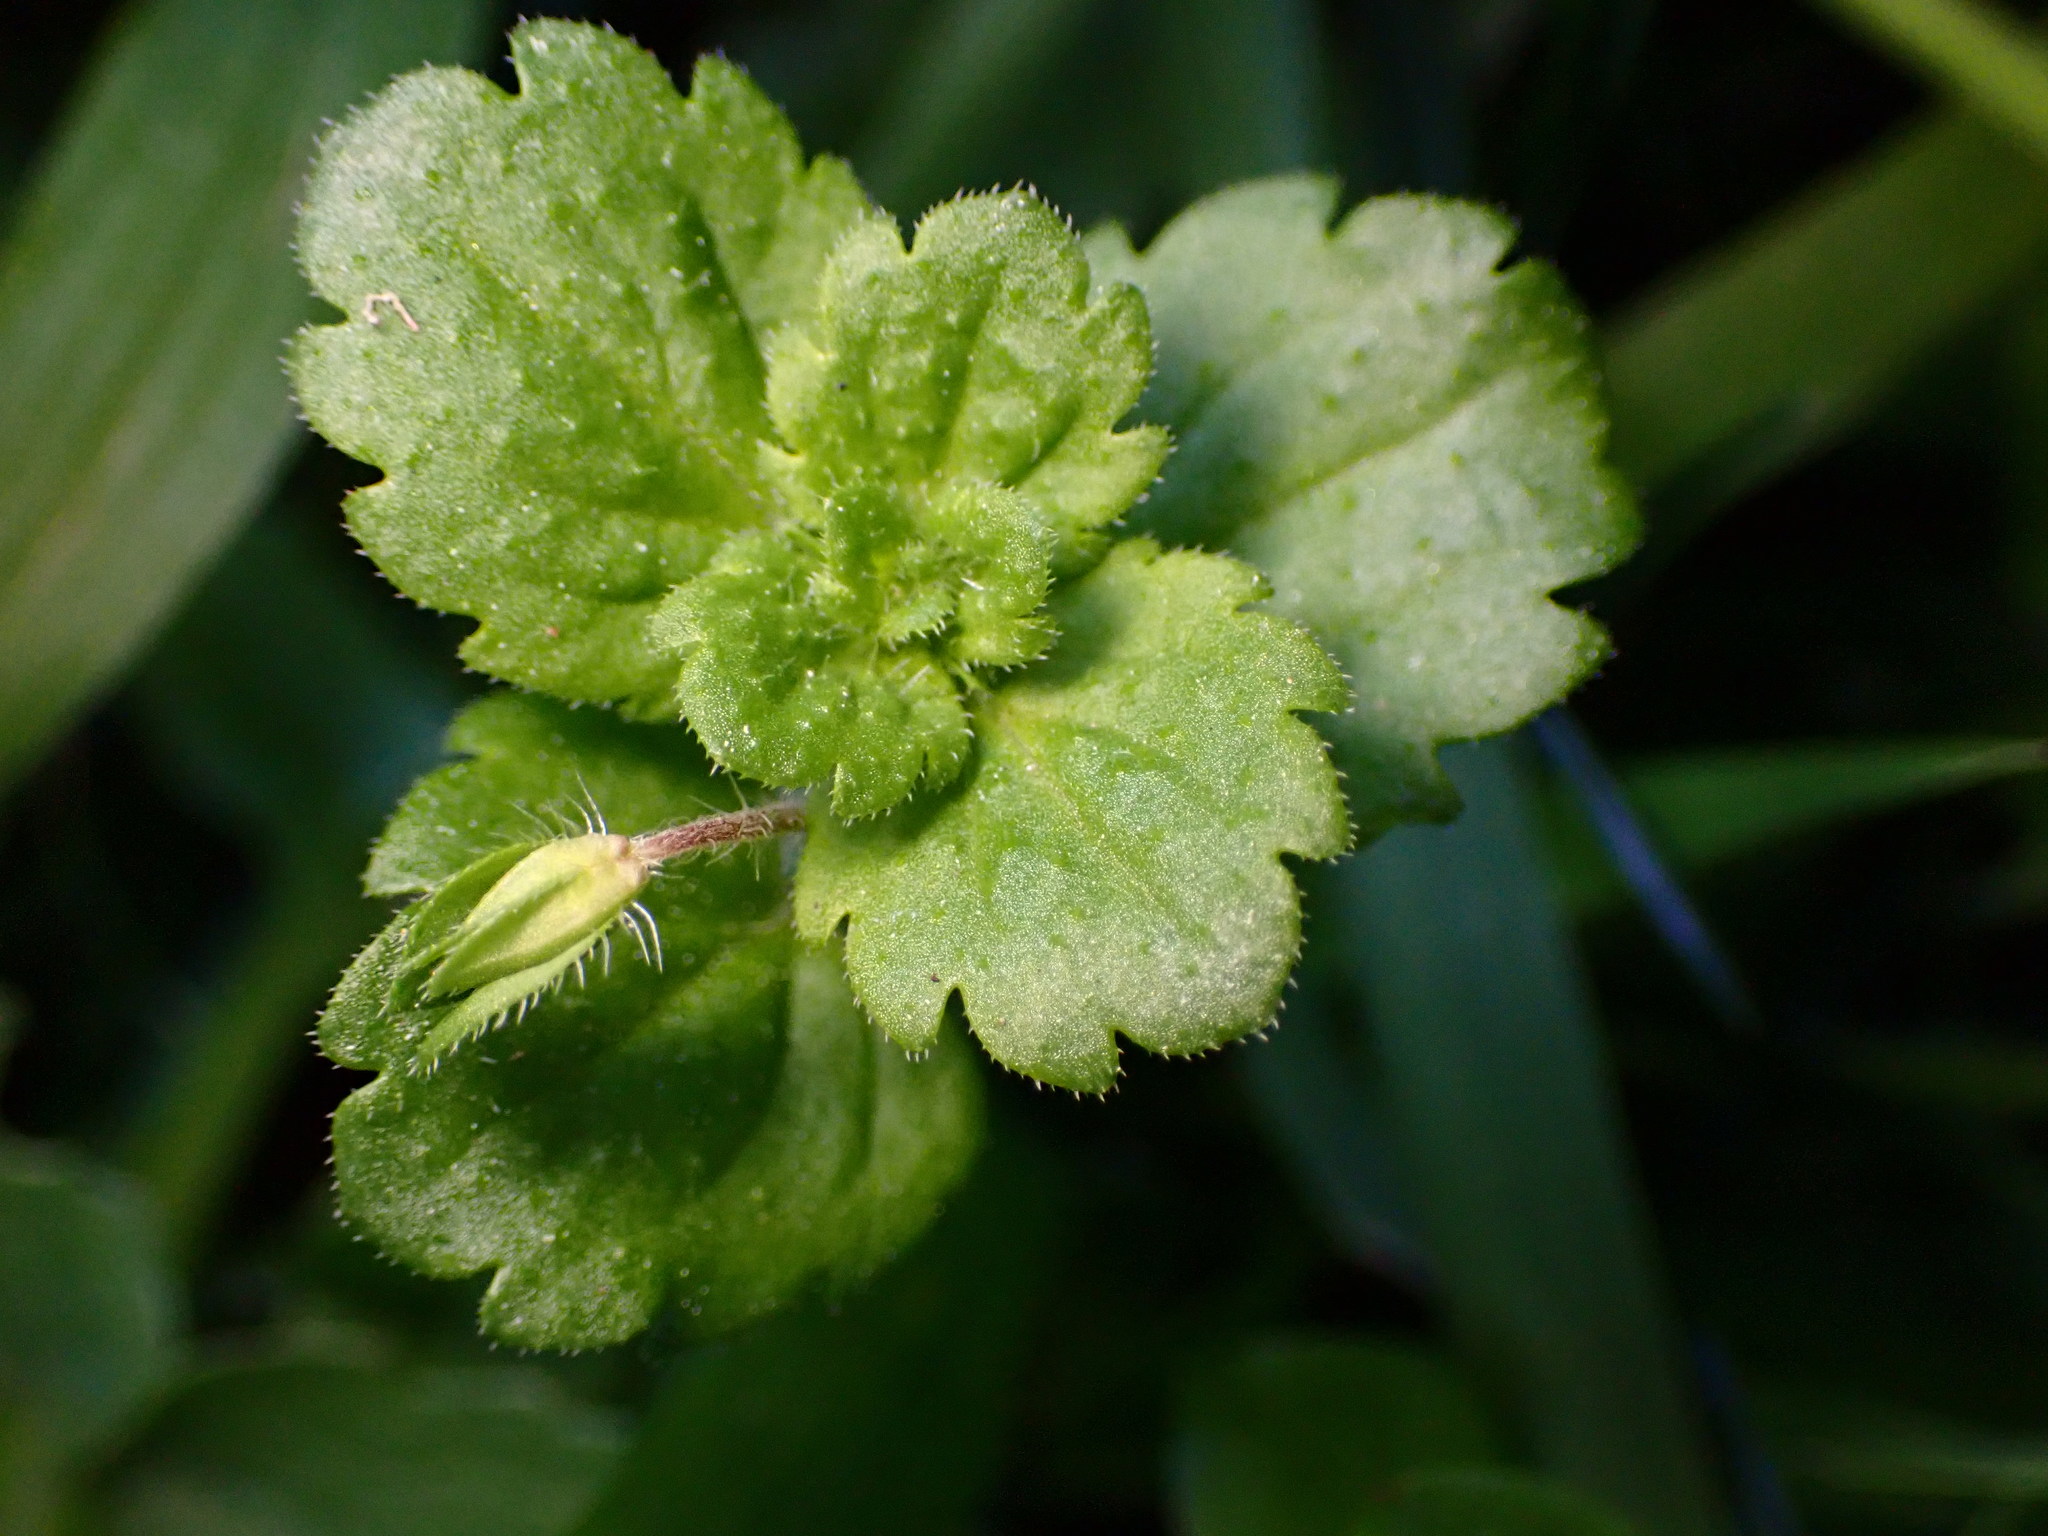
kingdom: Plantae
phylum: Tracheophyta
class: Magnoliopsida
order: Lamiales
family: Plantaginaceae
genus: Veronica
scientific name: Veronica persica
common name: Common field-speedwell
